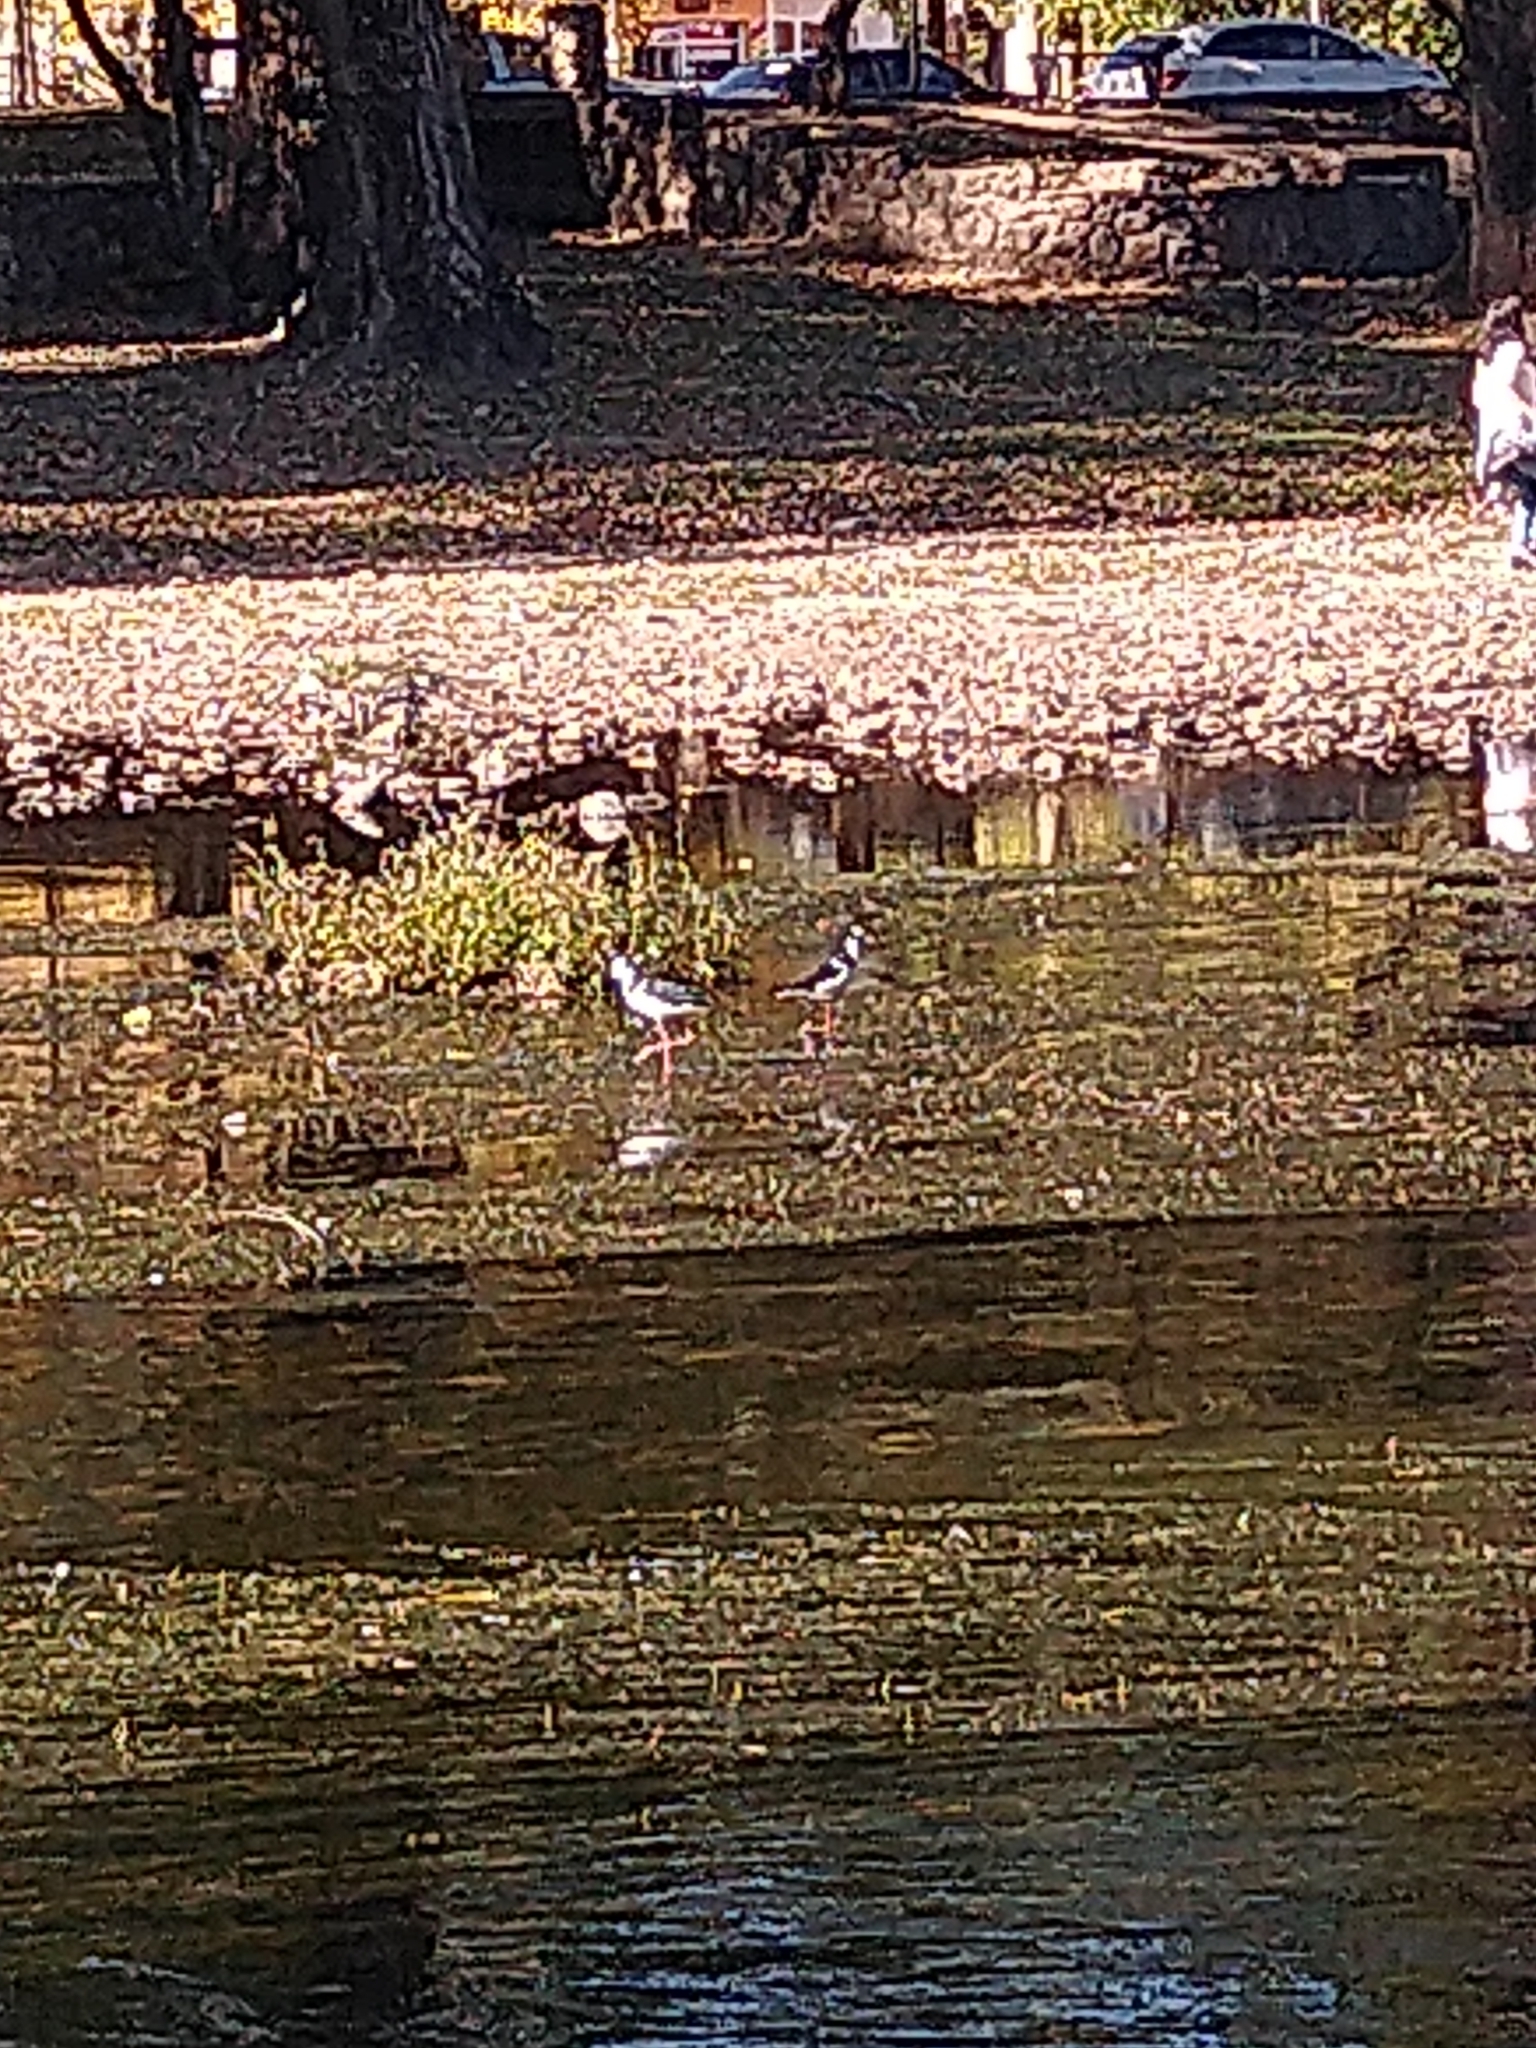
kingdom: Animalia
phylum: Chordata
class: Aves
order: Charadriiformes
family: Recurvirostridae
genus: Himantopus
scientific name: Himantopus mexicanus
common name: Black-necked stilt
